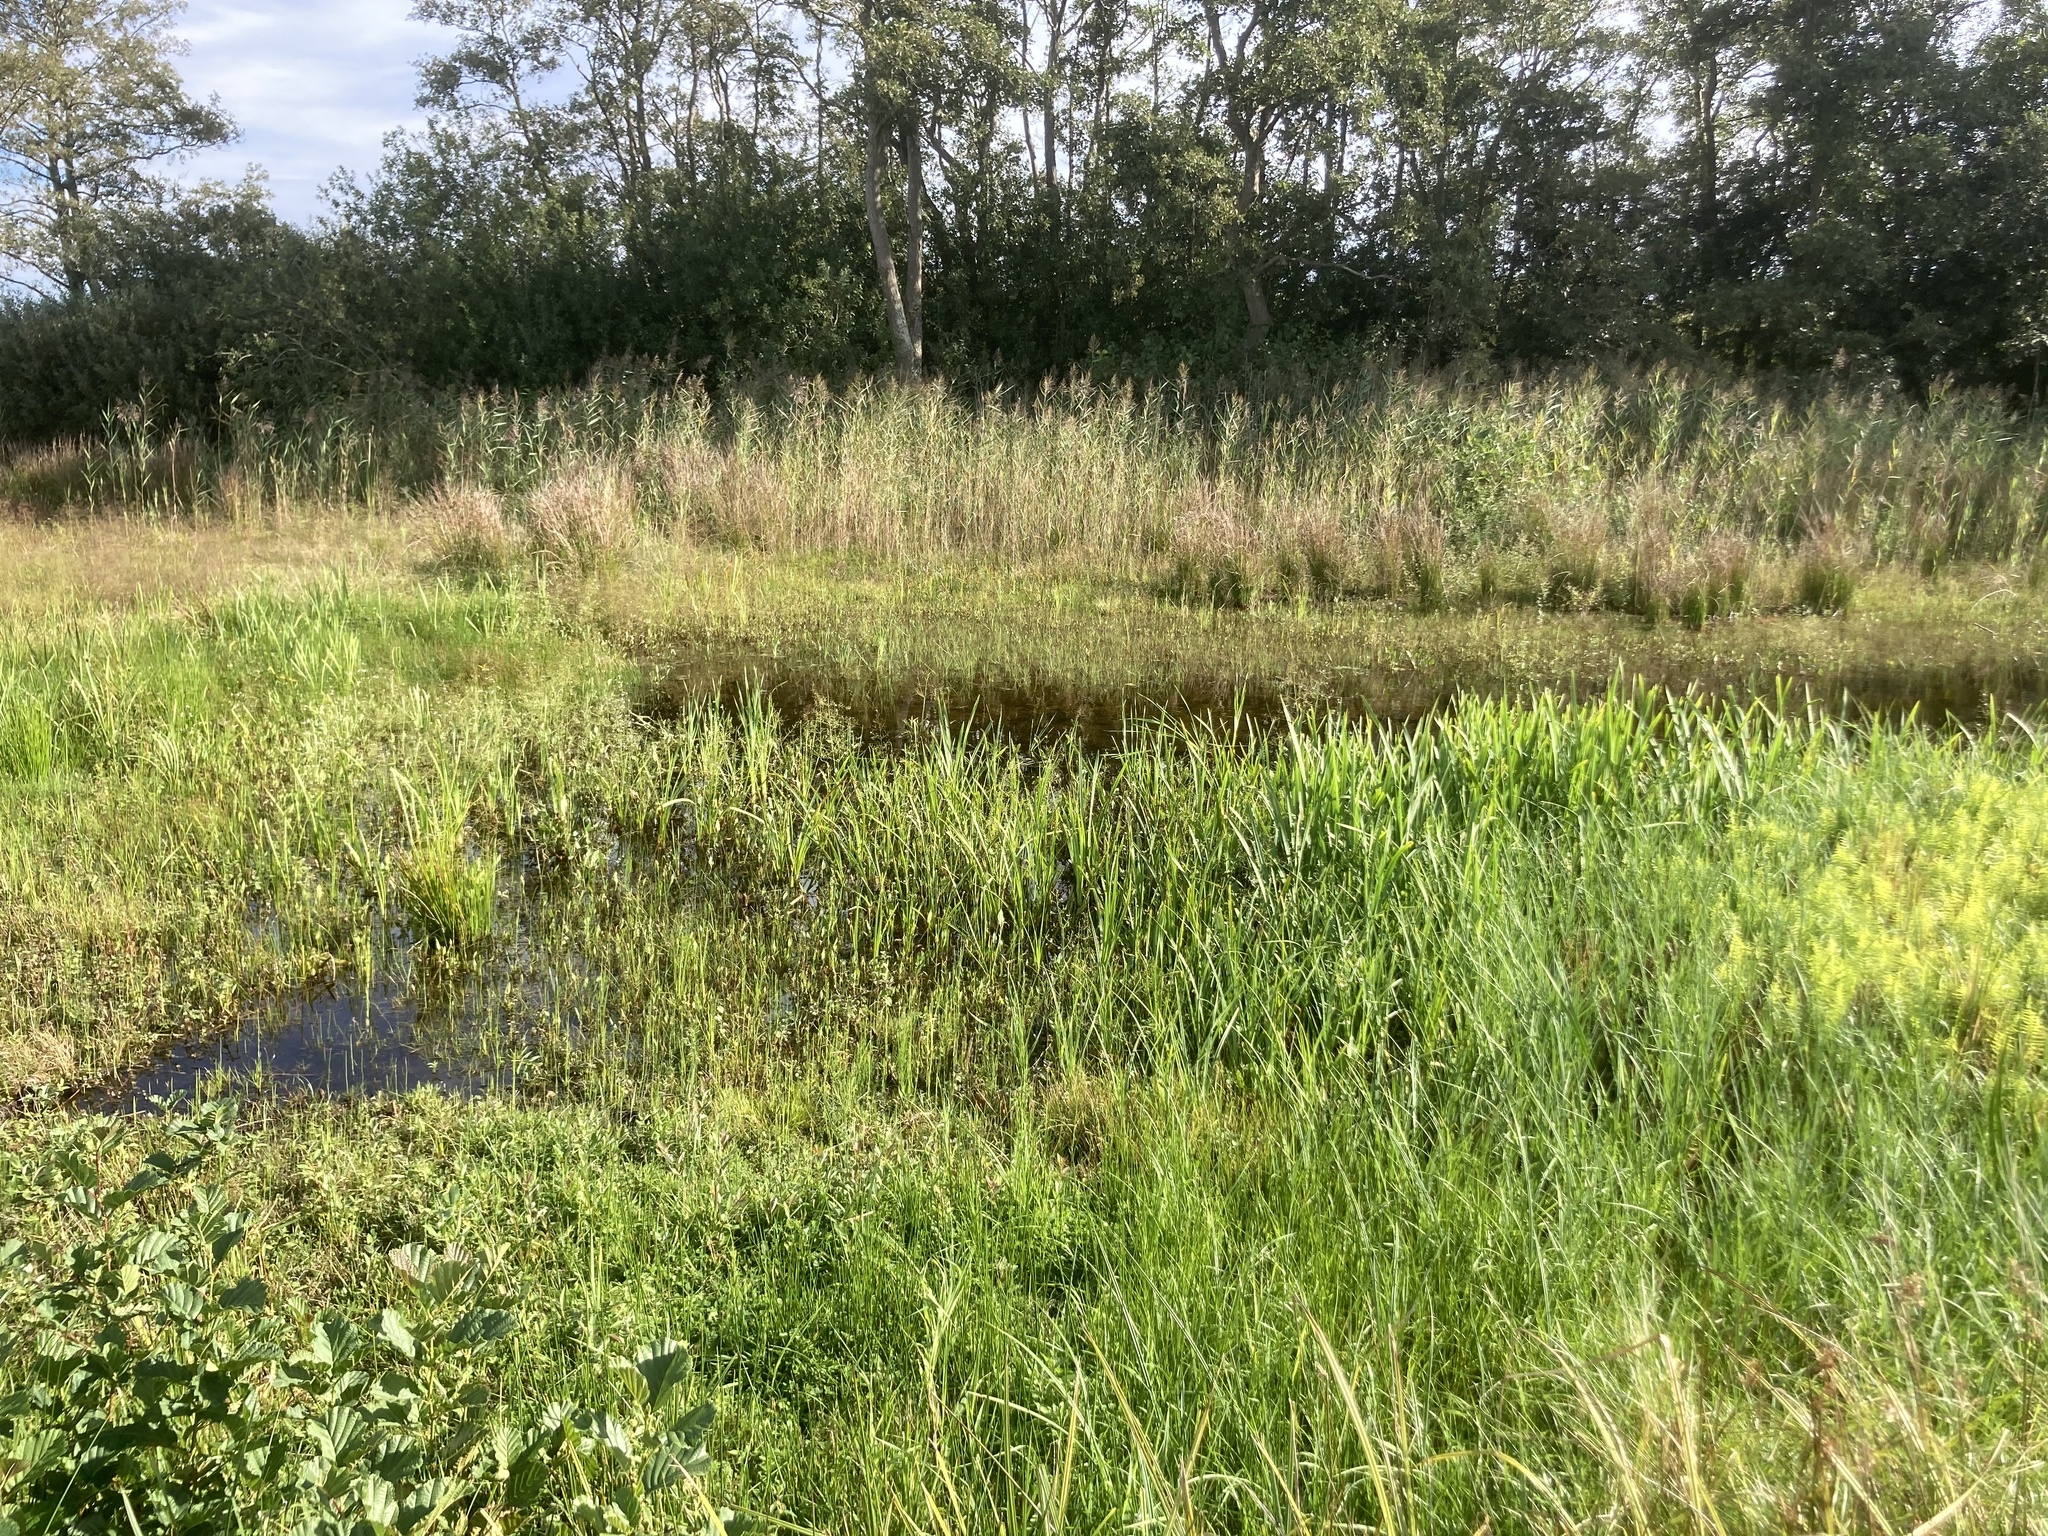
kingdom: Plantae
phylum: Tracheophyta
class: Liliopsida
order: Poales
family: Poaceae
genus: Phragmites
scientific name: Phragmites australis
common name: Common reed
